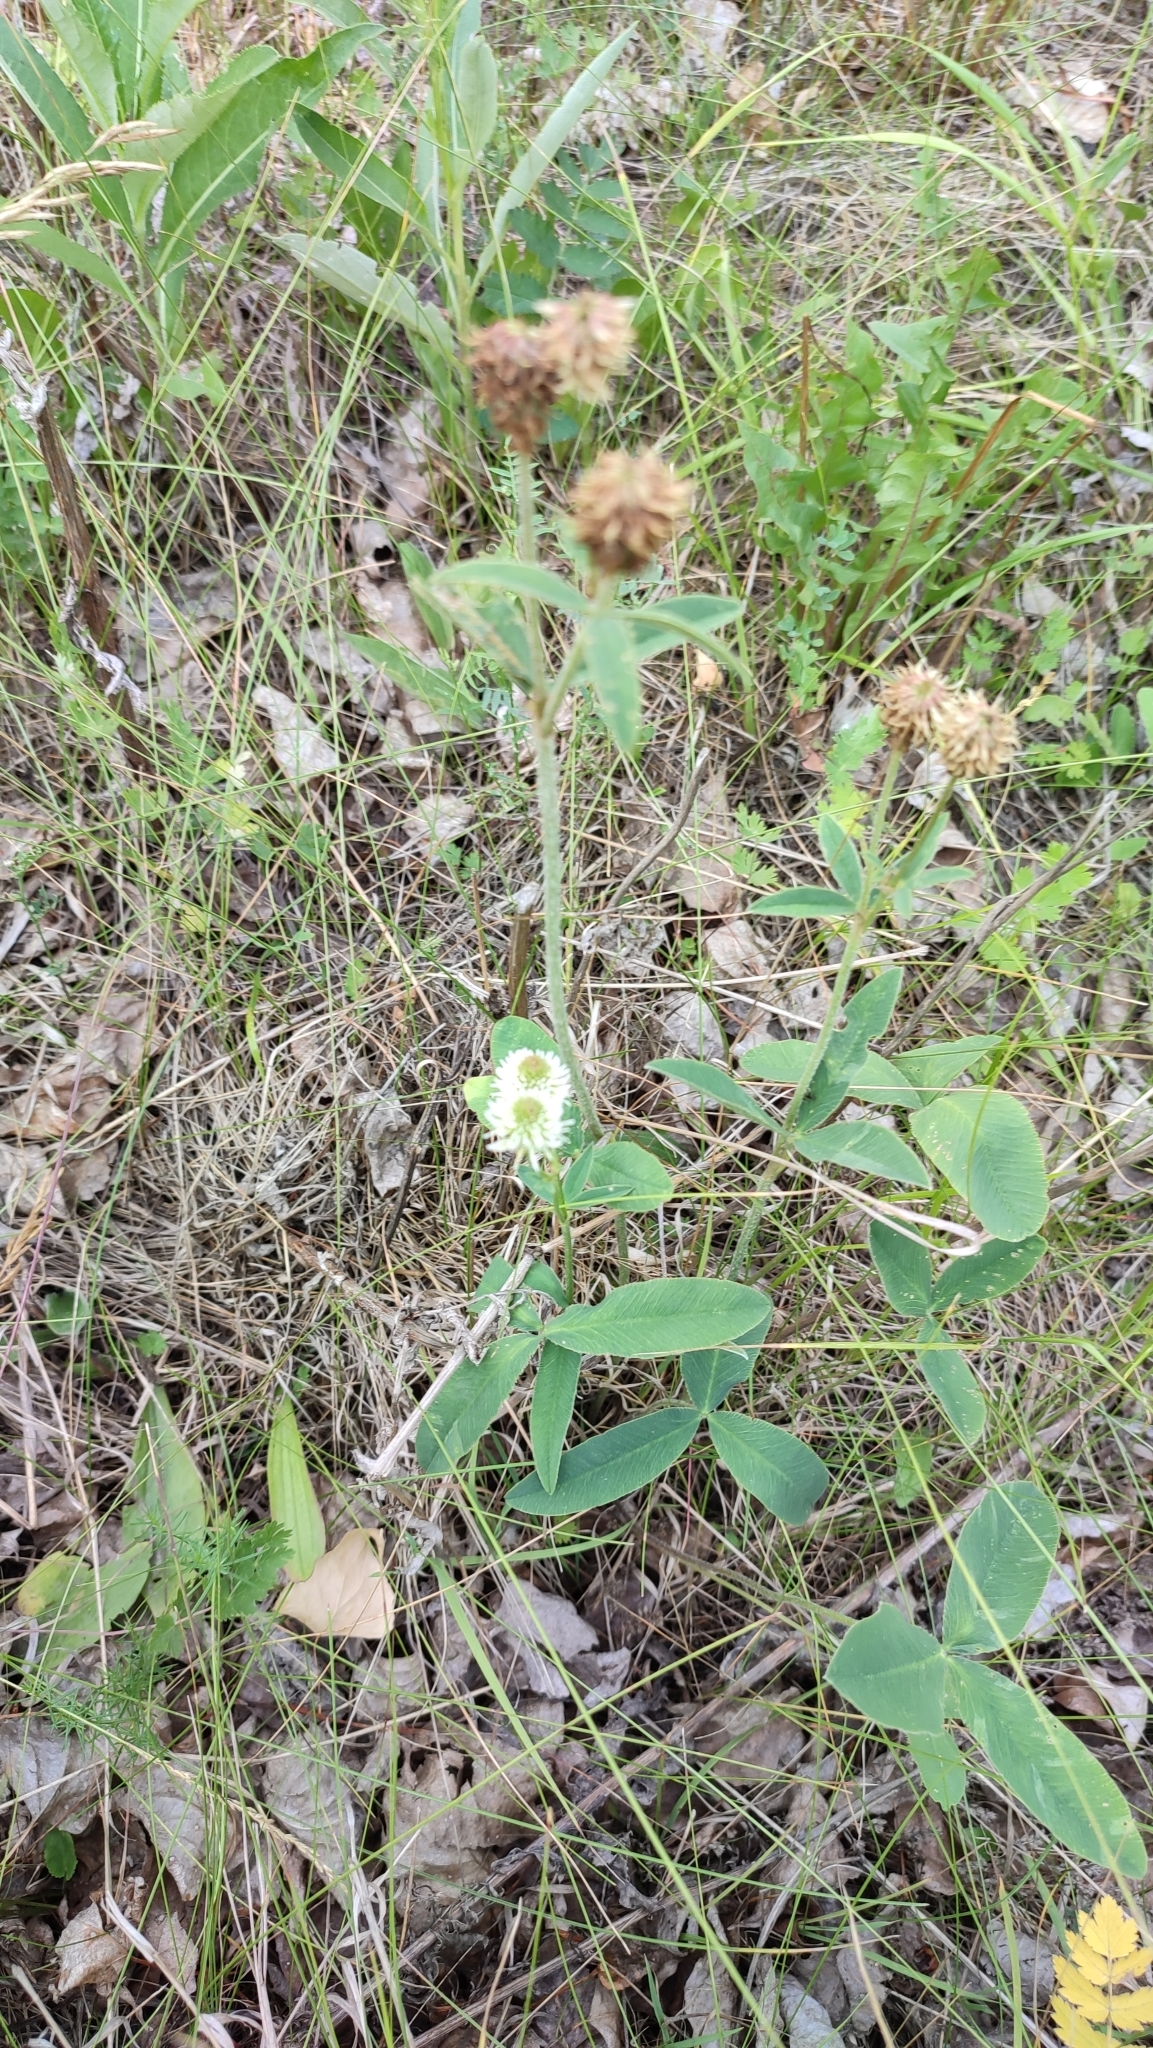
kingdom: Plantae
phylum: Tracheophyta
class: Magnoliopsida
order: Fabales
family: Fabaceae
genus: Trifolium
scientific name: Trifolium montanum
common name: Mountain clover
